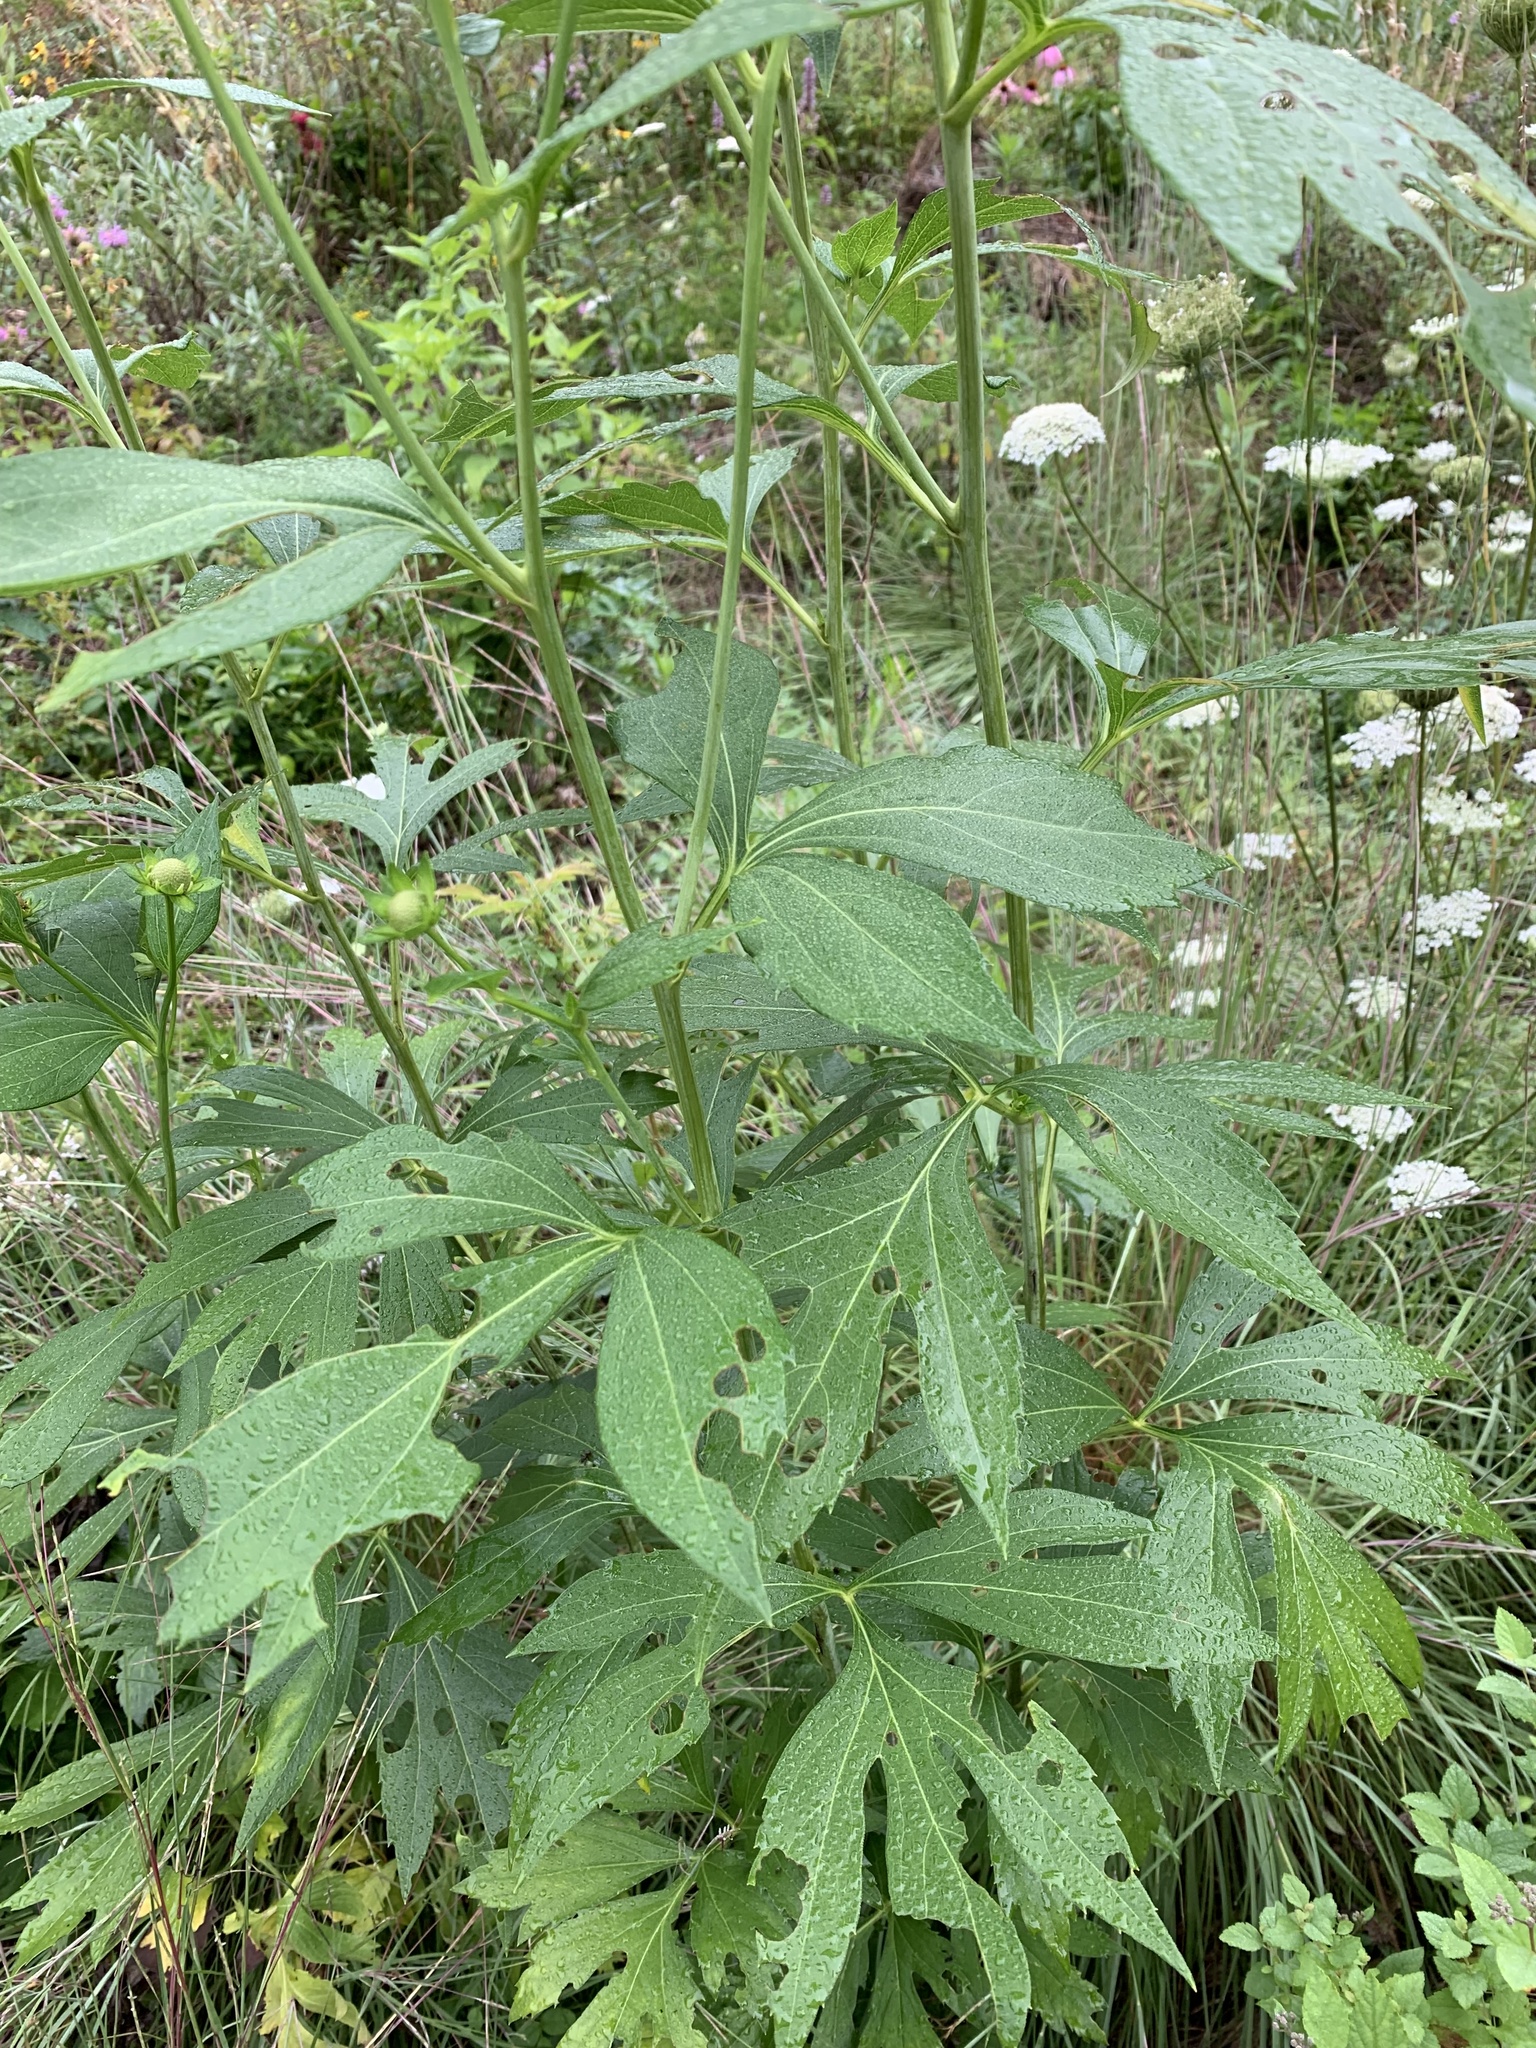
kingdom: Plantae
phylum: Tracheophyta
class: Magnoliopsida
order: Asterales
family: Asteraceae
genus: Rudbeckia
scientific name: Rudbeckia laciniata
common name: Coneflower
